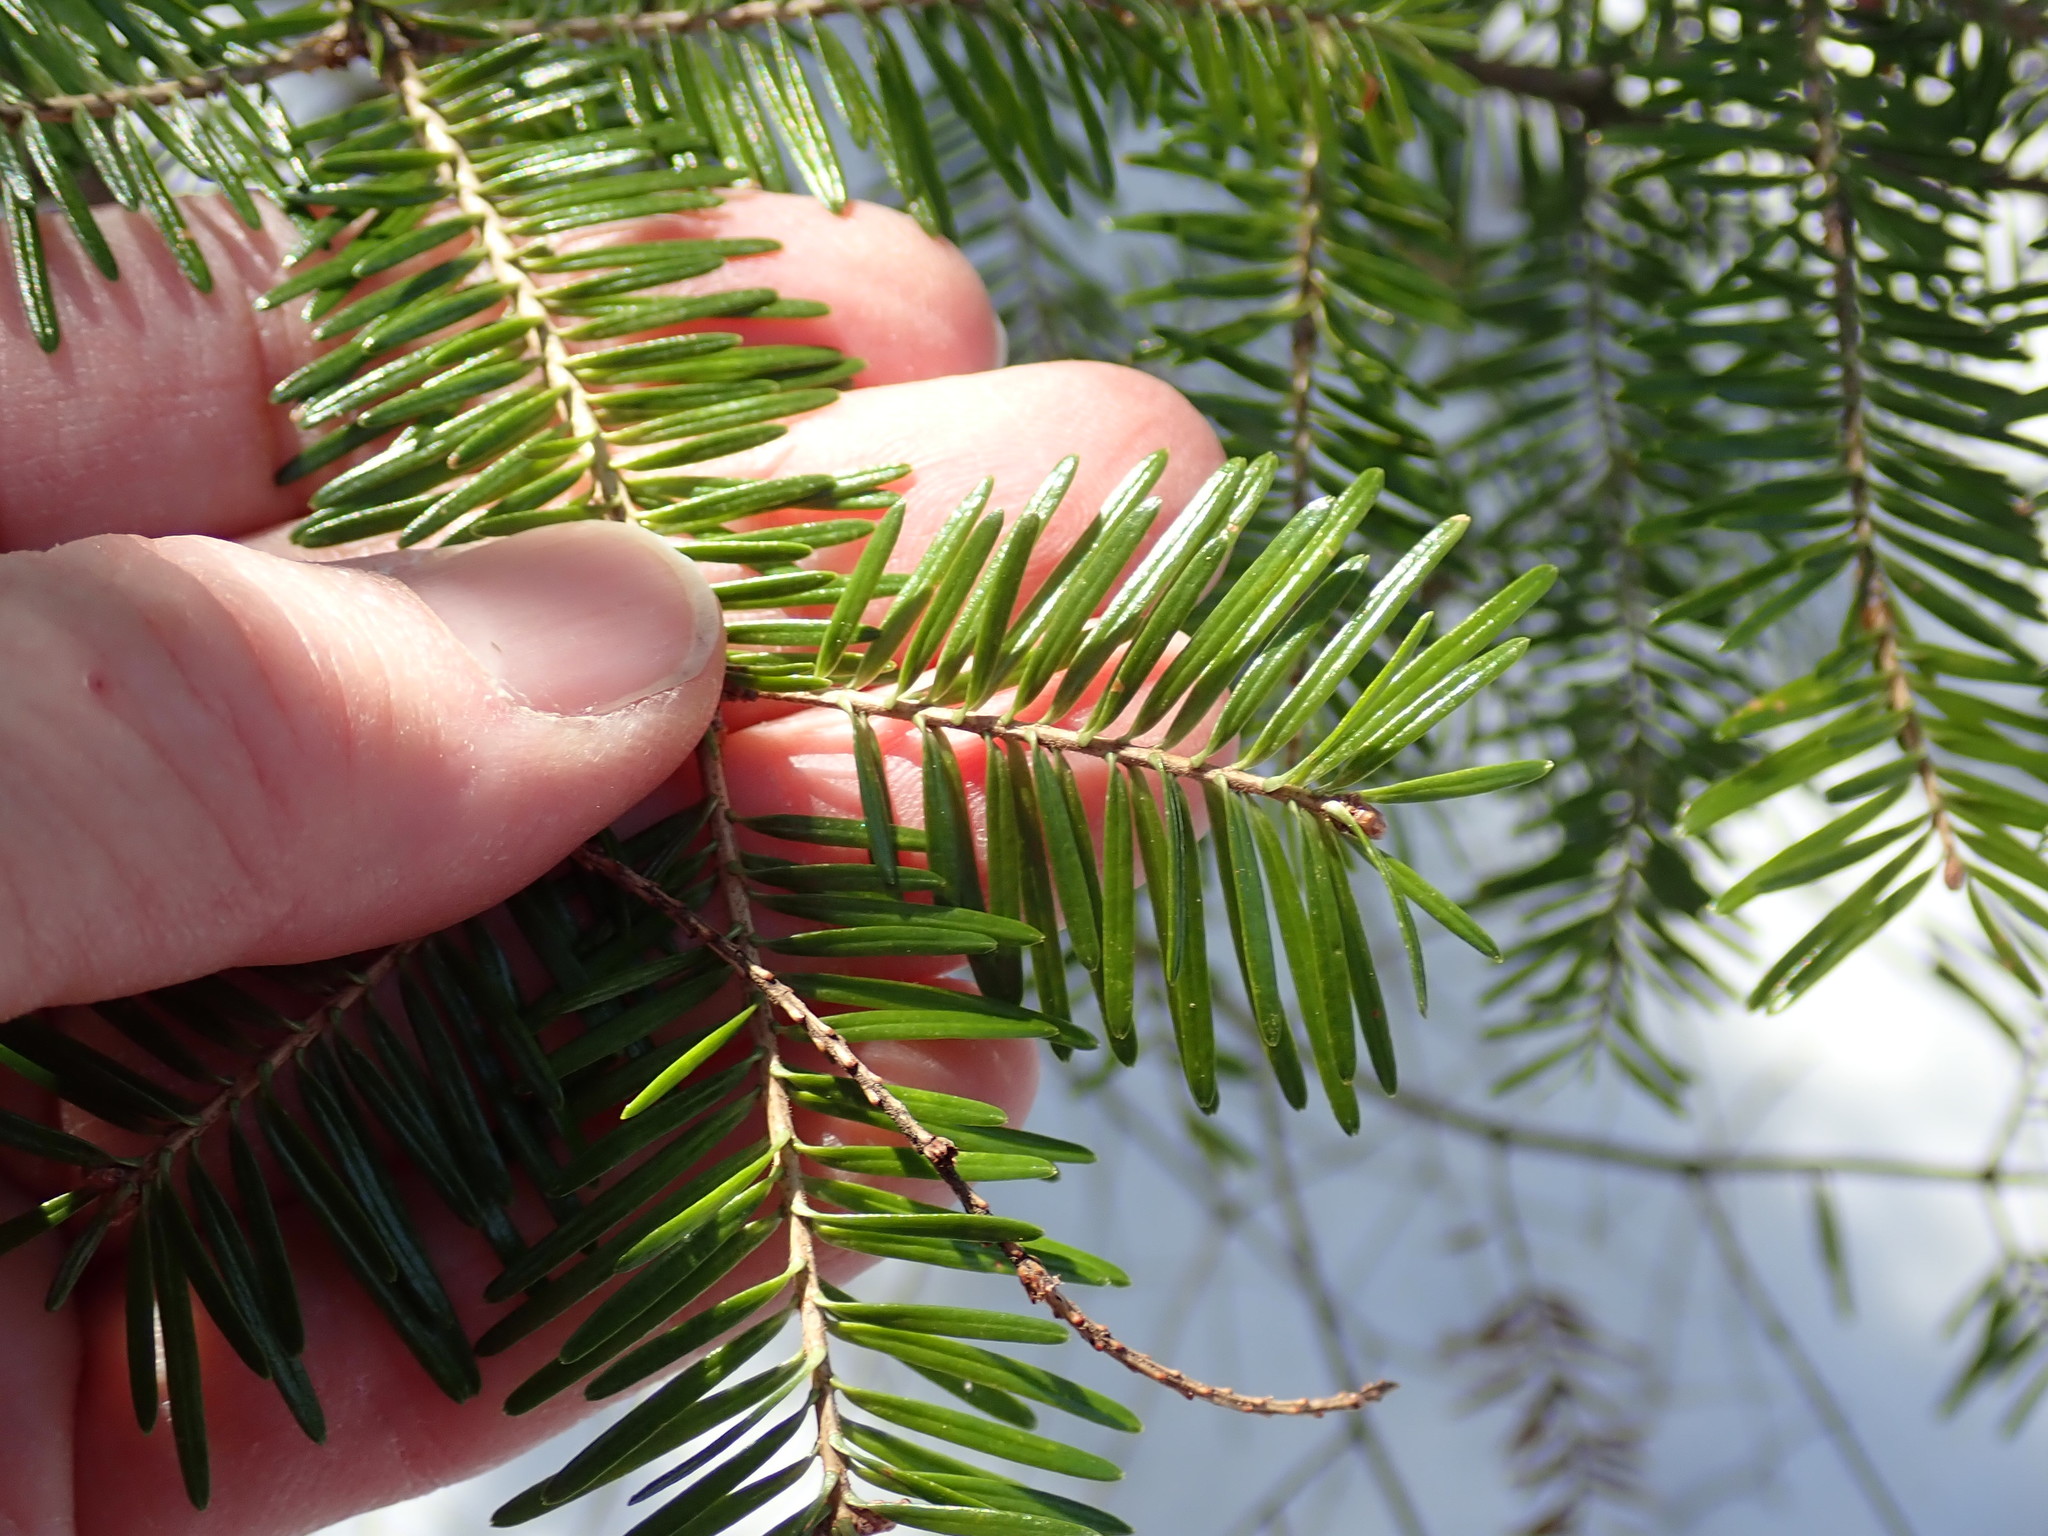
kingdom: Plantae
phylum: Tracheophyta
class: Pinopsida
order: Pinales
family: Pinaceae
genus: Abies
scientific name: Abies balsamea
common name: Balsam fir
